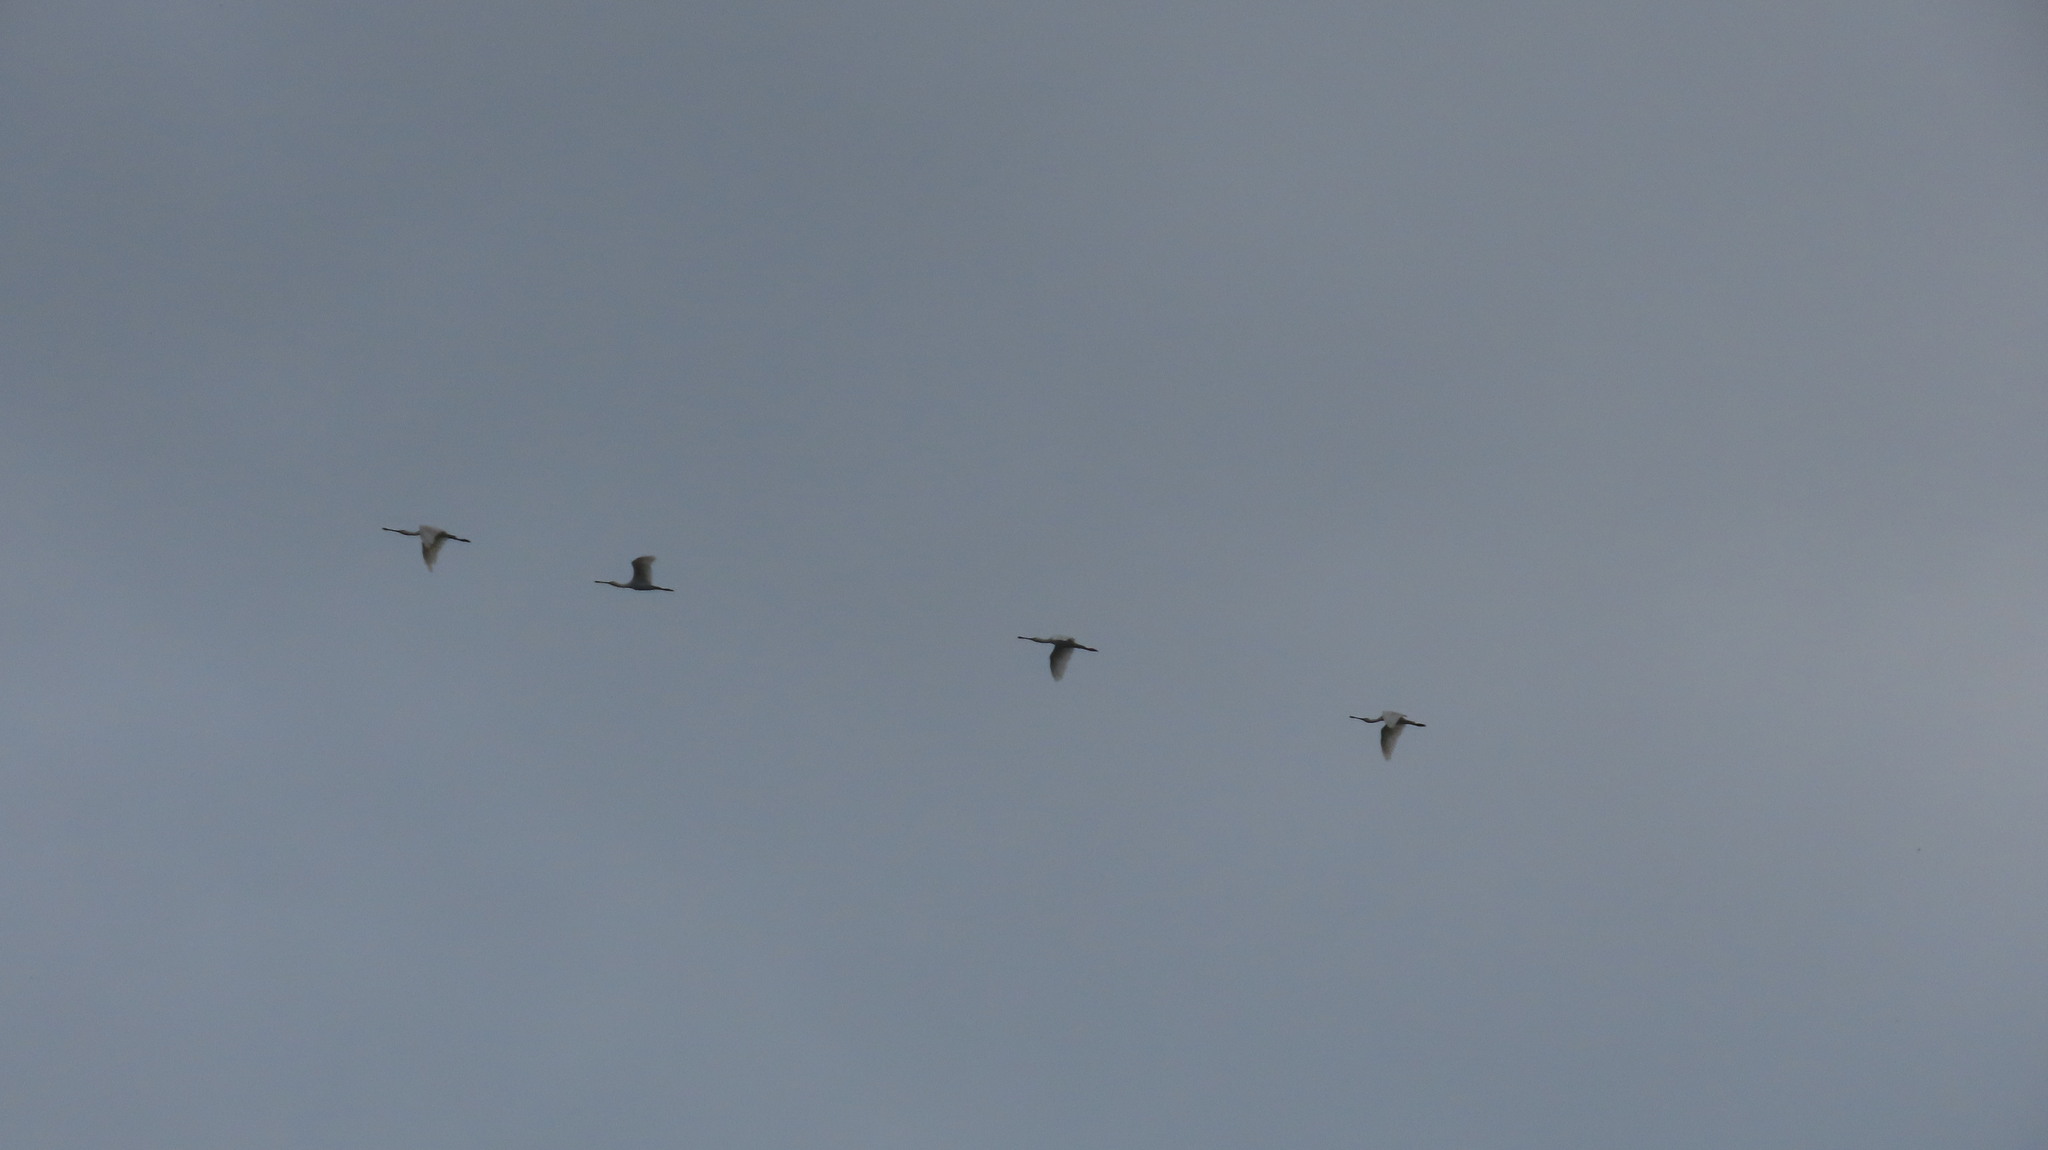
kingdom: Animalia
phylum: Chordata
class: Aves
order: Pelecaniformes
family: Threskiornithidae
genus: Platalea
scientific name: Platalea leucorodia
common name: Eurasian spoonbill
